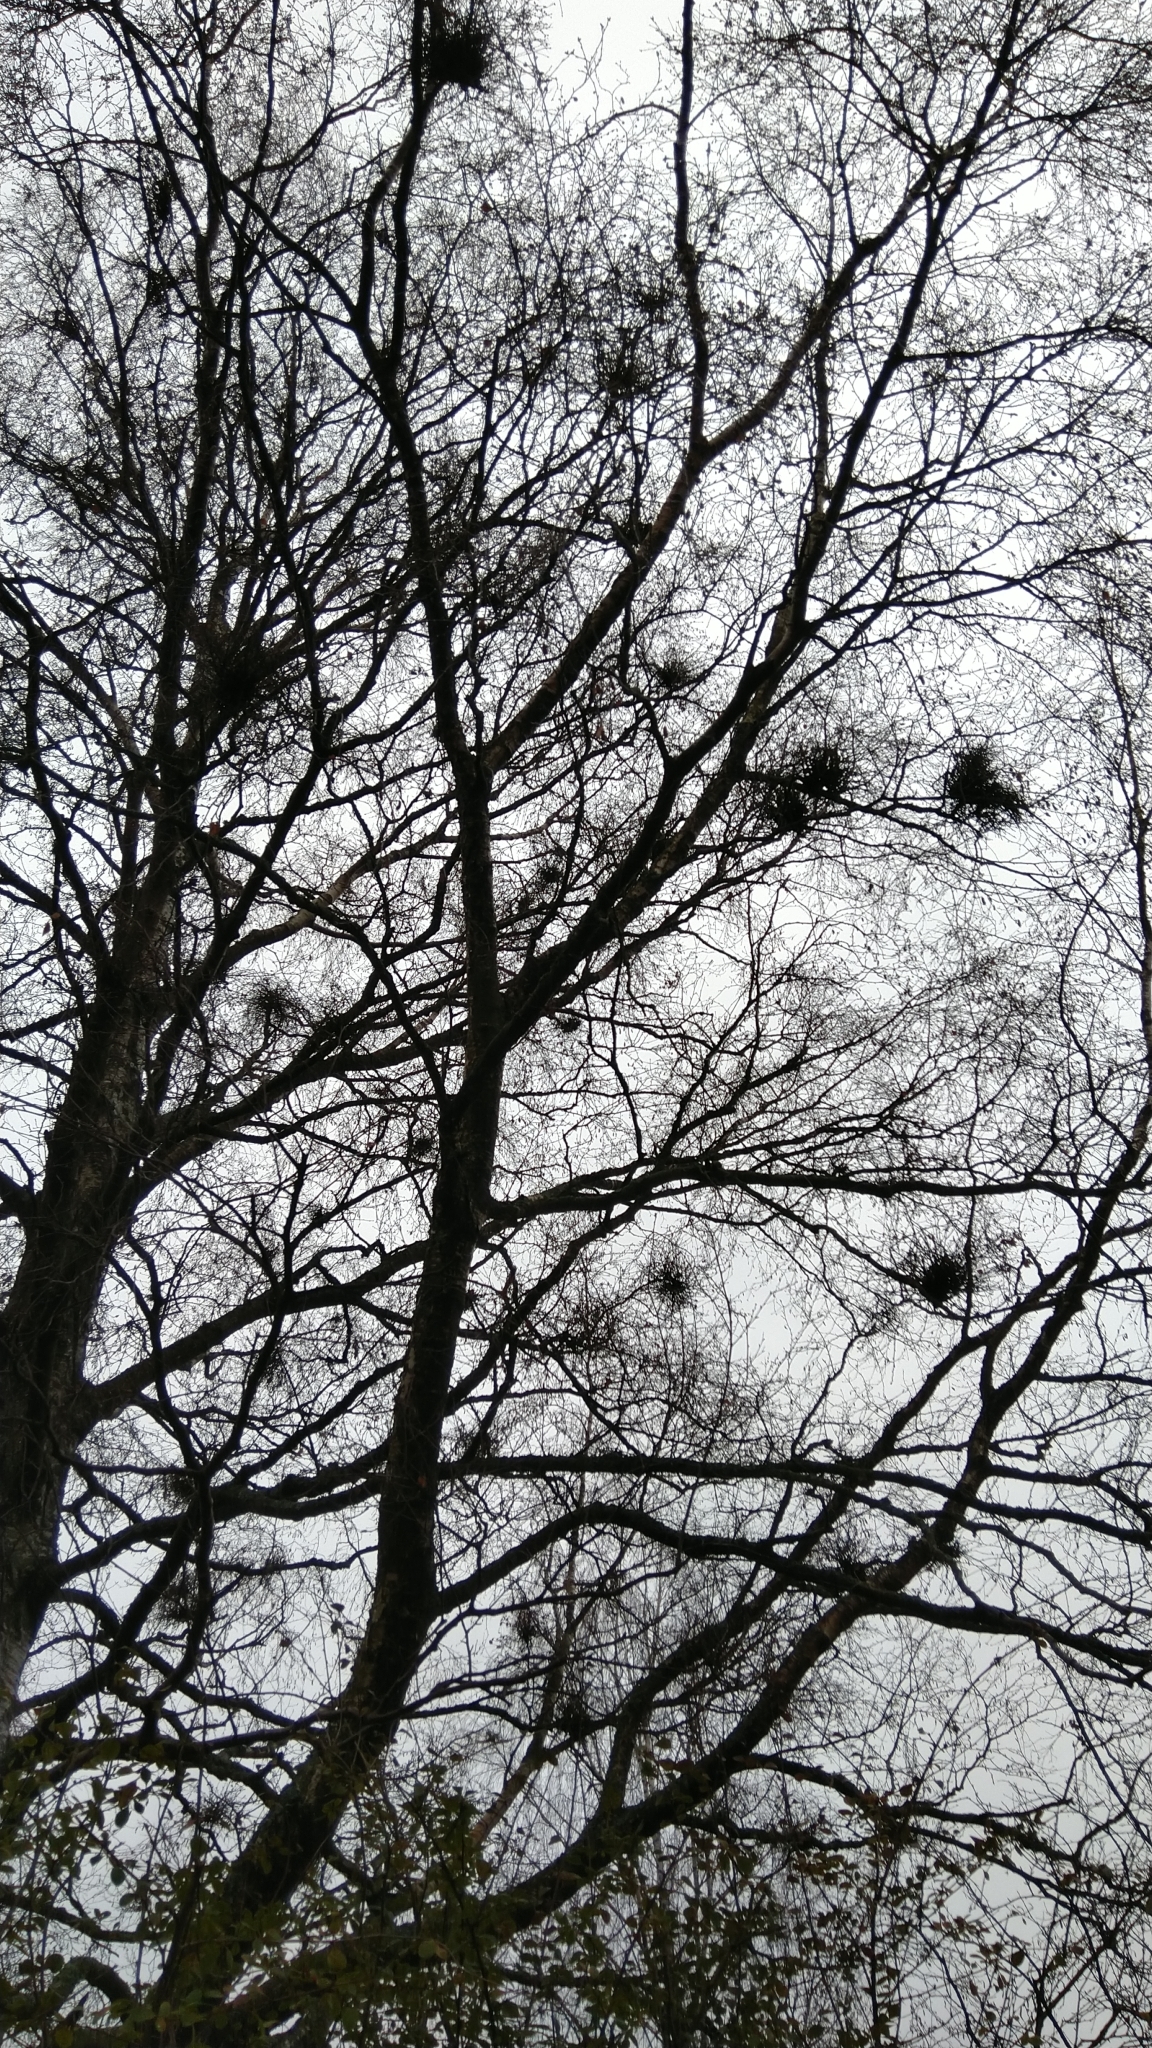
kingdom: Fungi
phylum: Ascomycota
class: Taphrinomycetes
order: Taphrinales
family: Taphrinaceae
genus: Taphrina
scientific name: Taphrina betulina
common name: Birch besom
